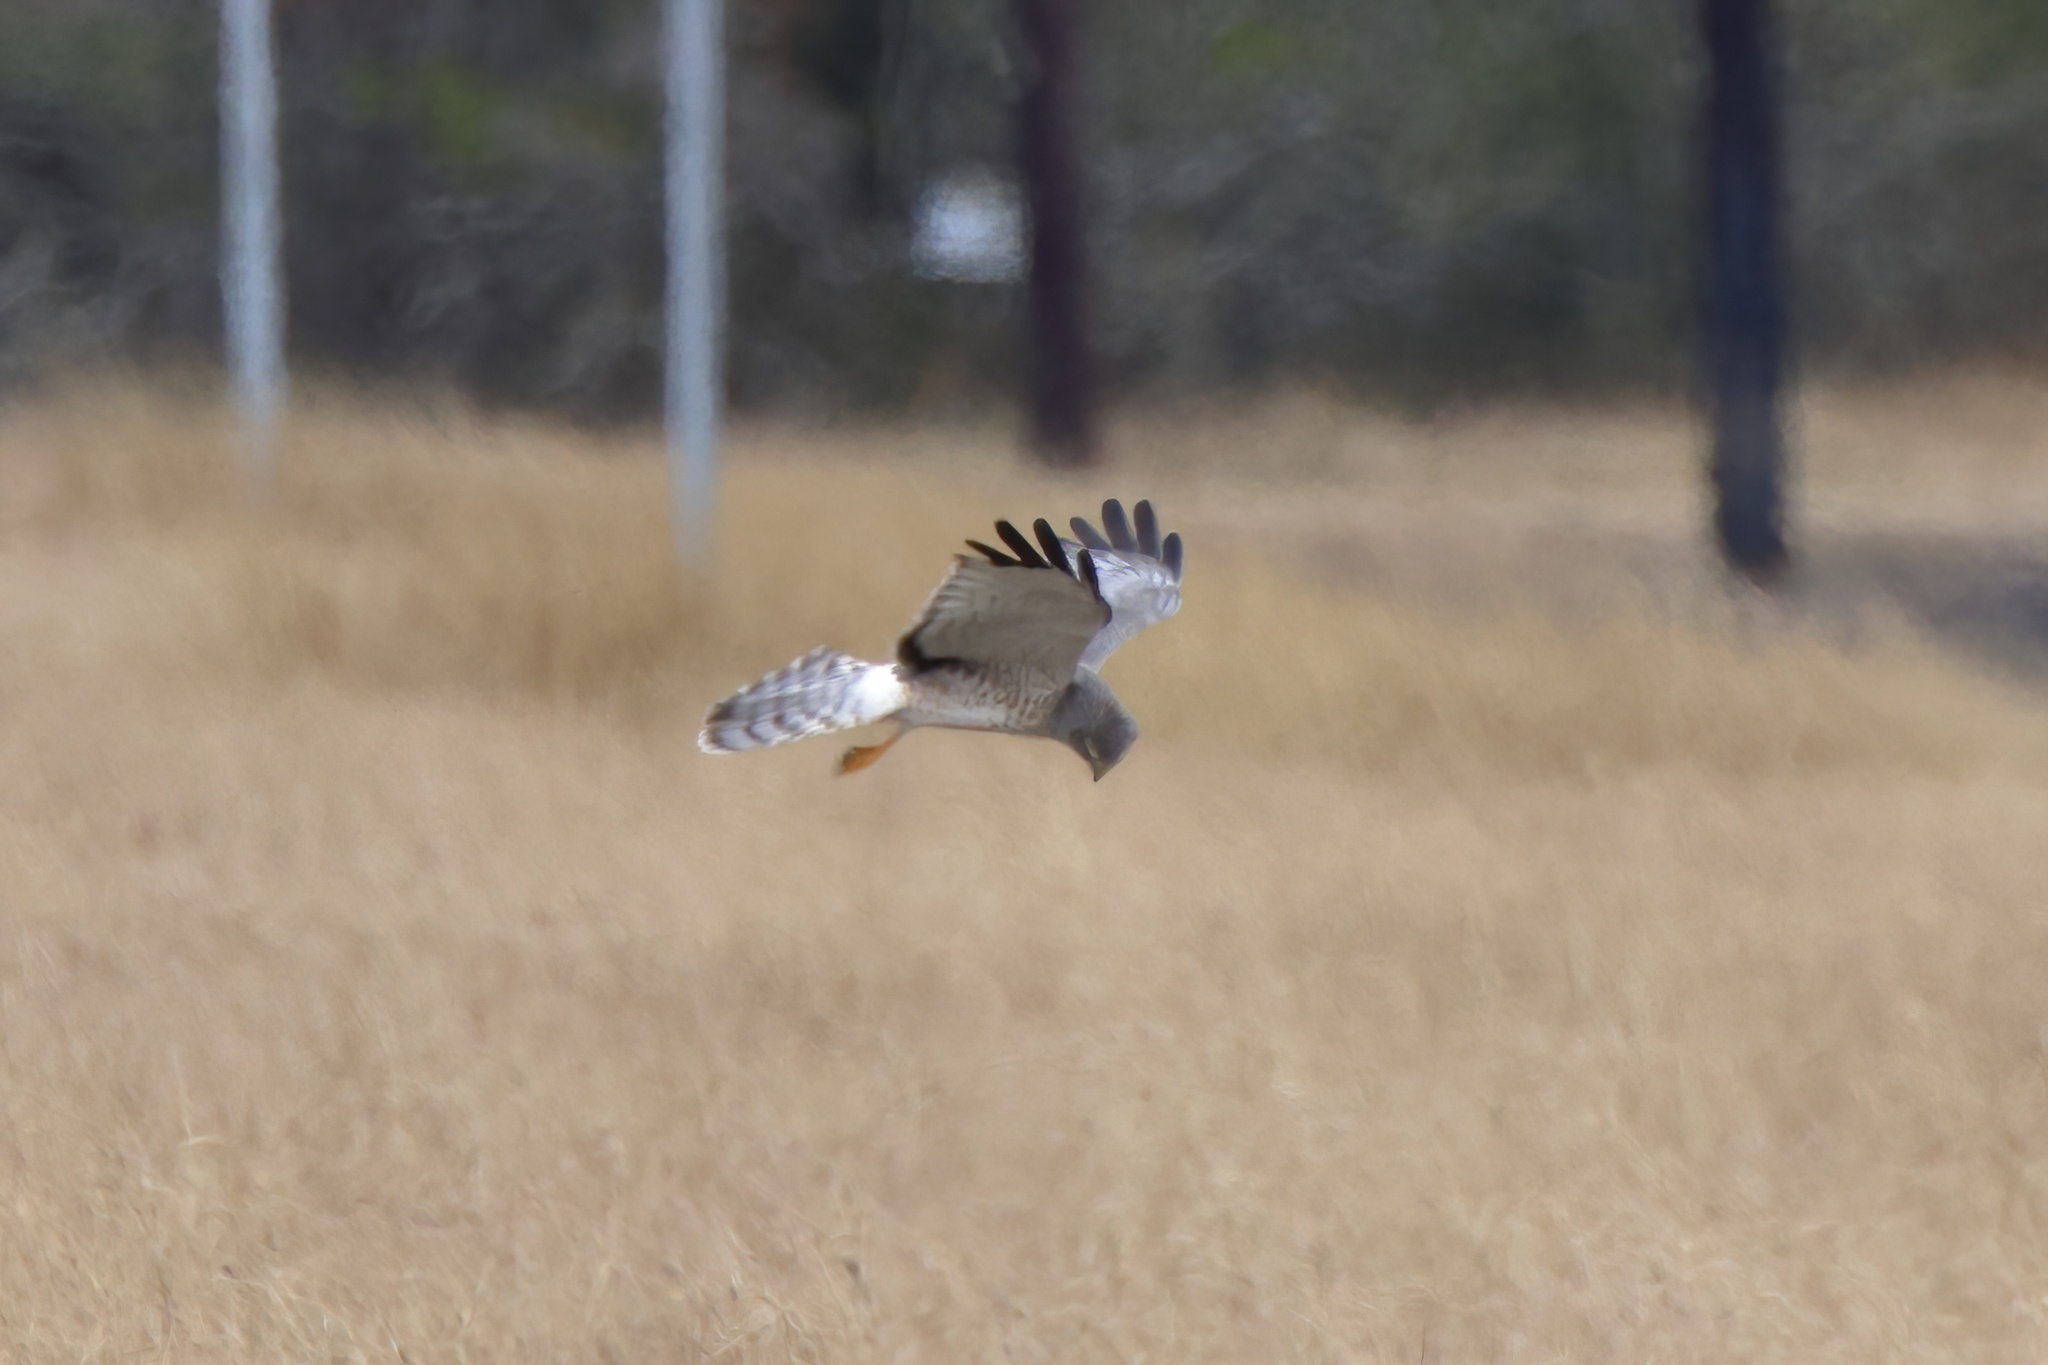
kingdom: Animalia
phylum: Chordata
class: Aves
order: Accipitriformes
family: Accipitridae
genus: Circus
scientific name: Circus cyaneus
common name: Hen harrier
